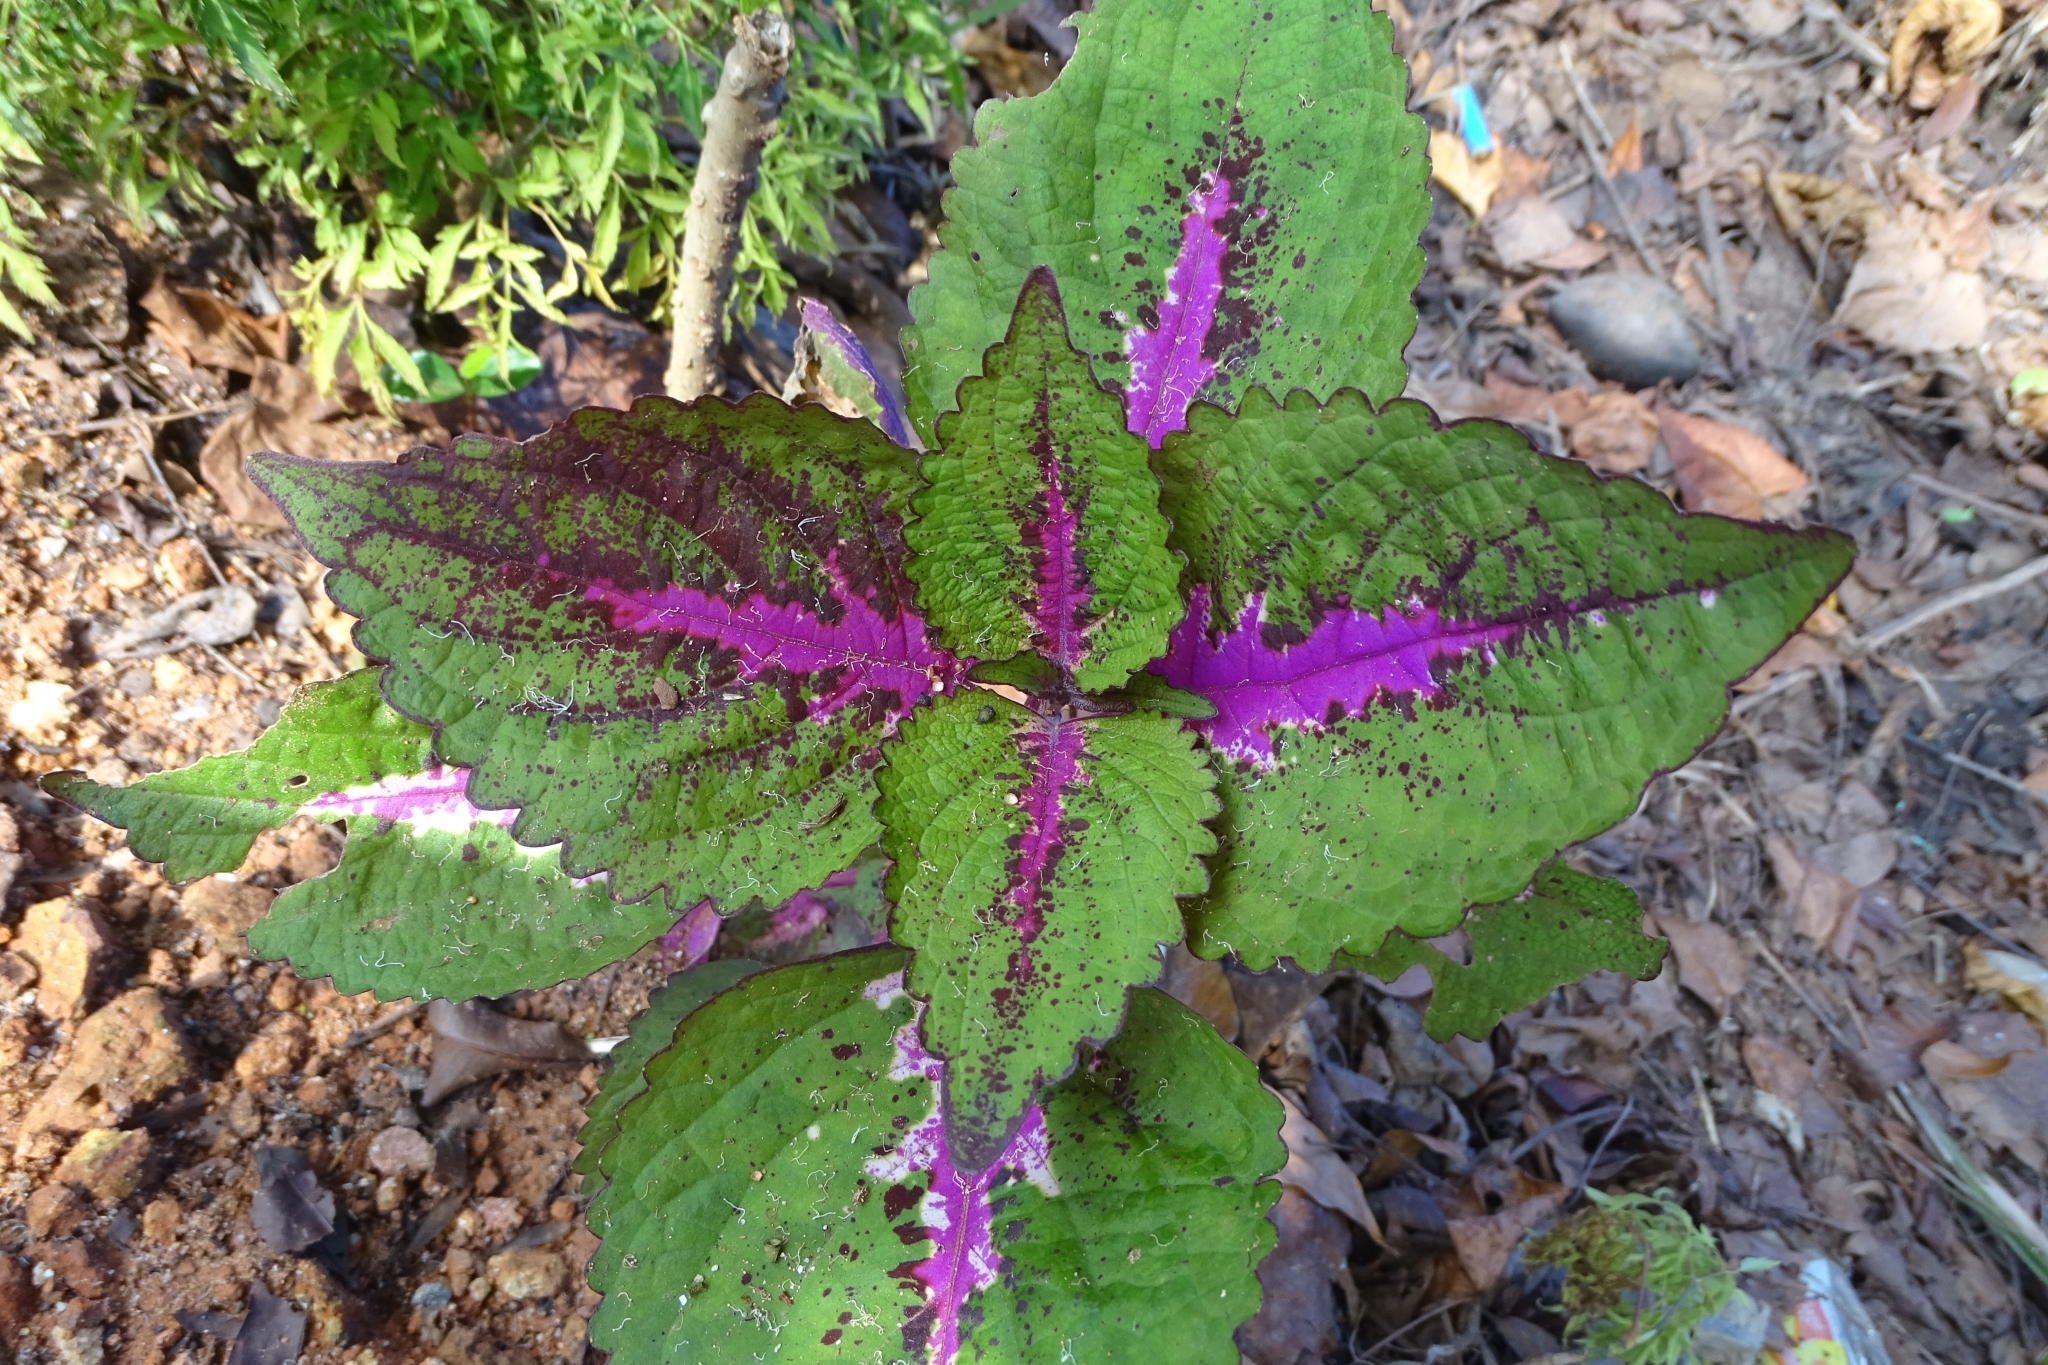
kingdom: Plantae
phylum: Tracheophyta
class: Magnoliopsida
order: Lamiales
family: Lamiaceae
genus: Coleus
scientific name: Coleus scutellarioides
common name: Coleus
